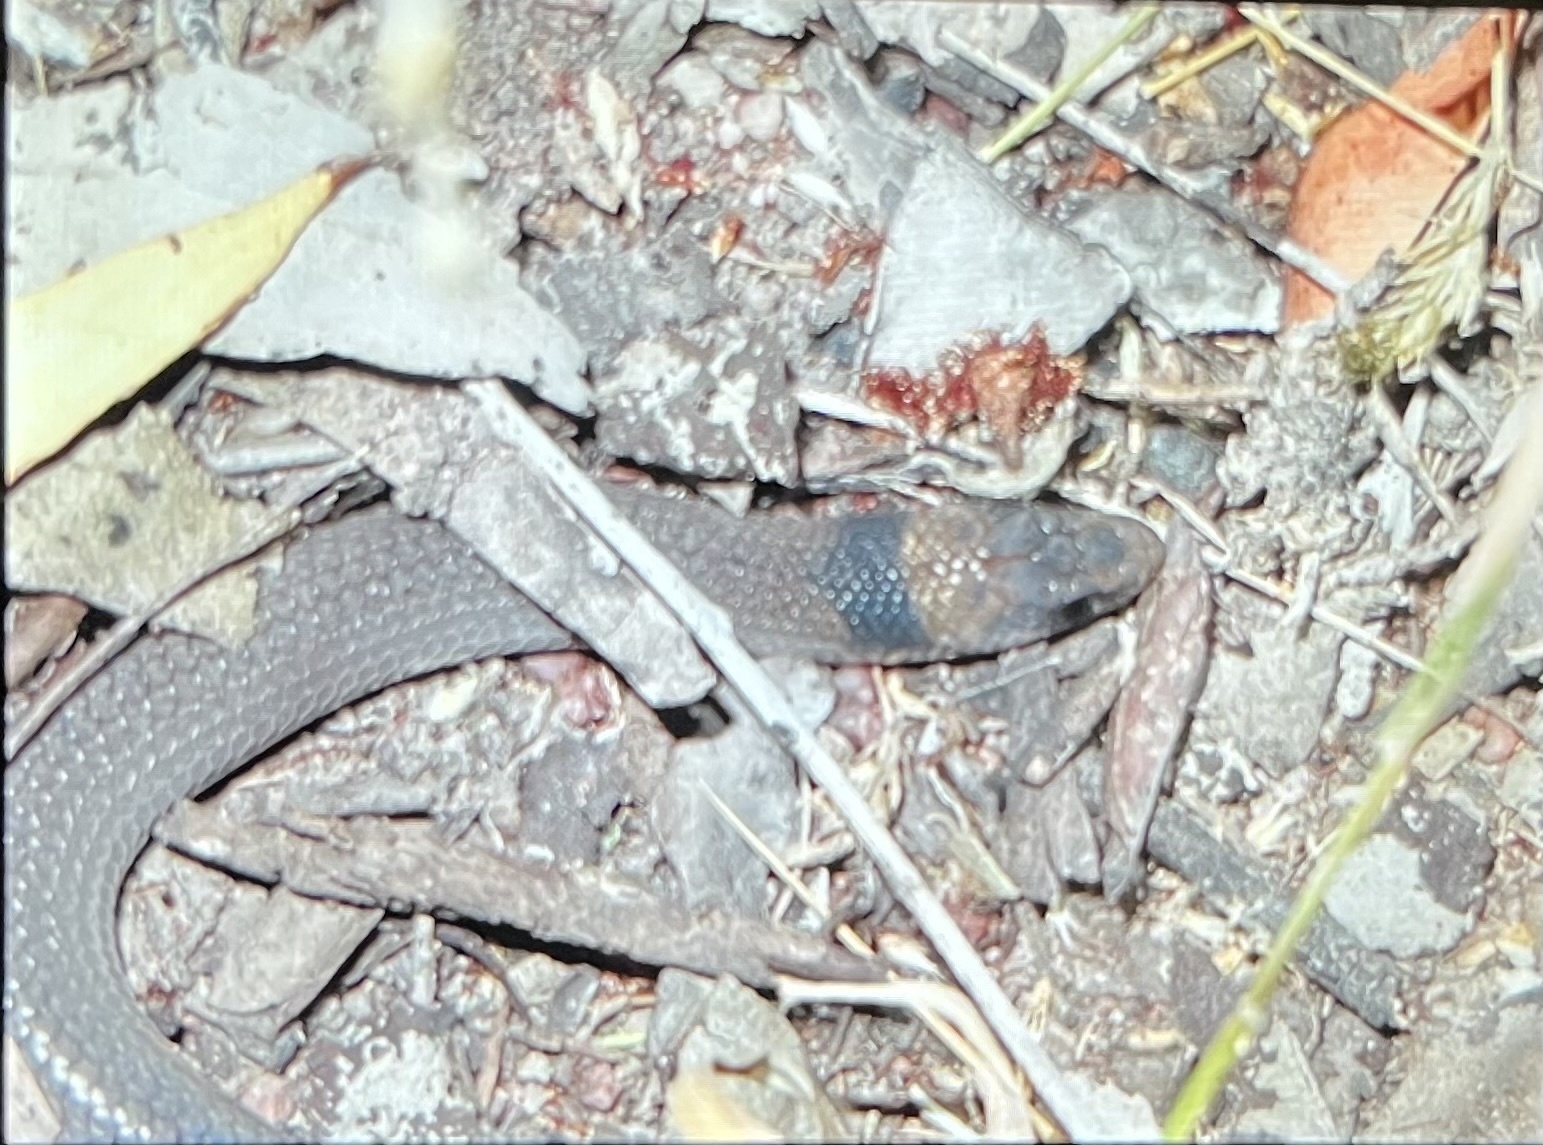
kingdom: Animalia
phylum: Chordata
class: Squamata
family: Pygopodidae
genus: Paradelma
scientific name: Paradelma orientalis
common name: Brigalow scaly-foot
